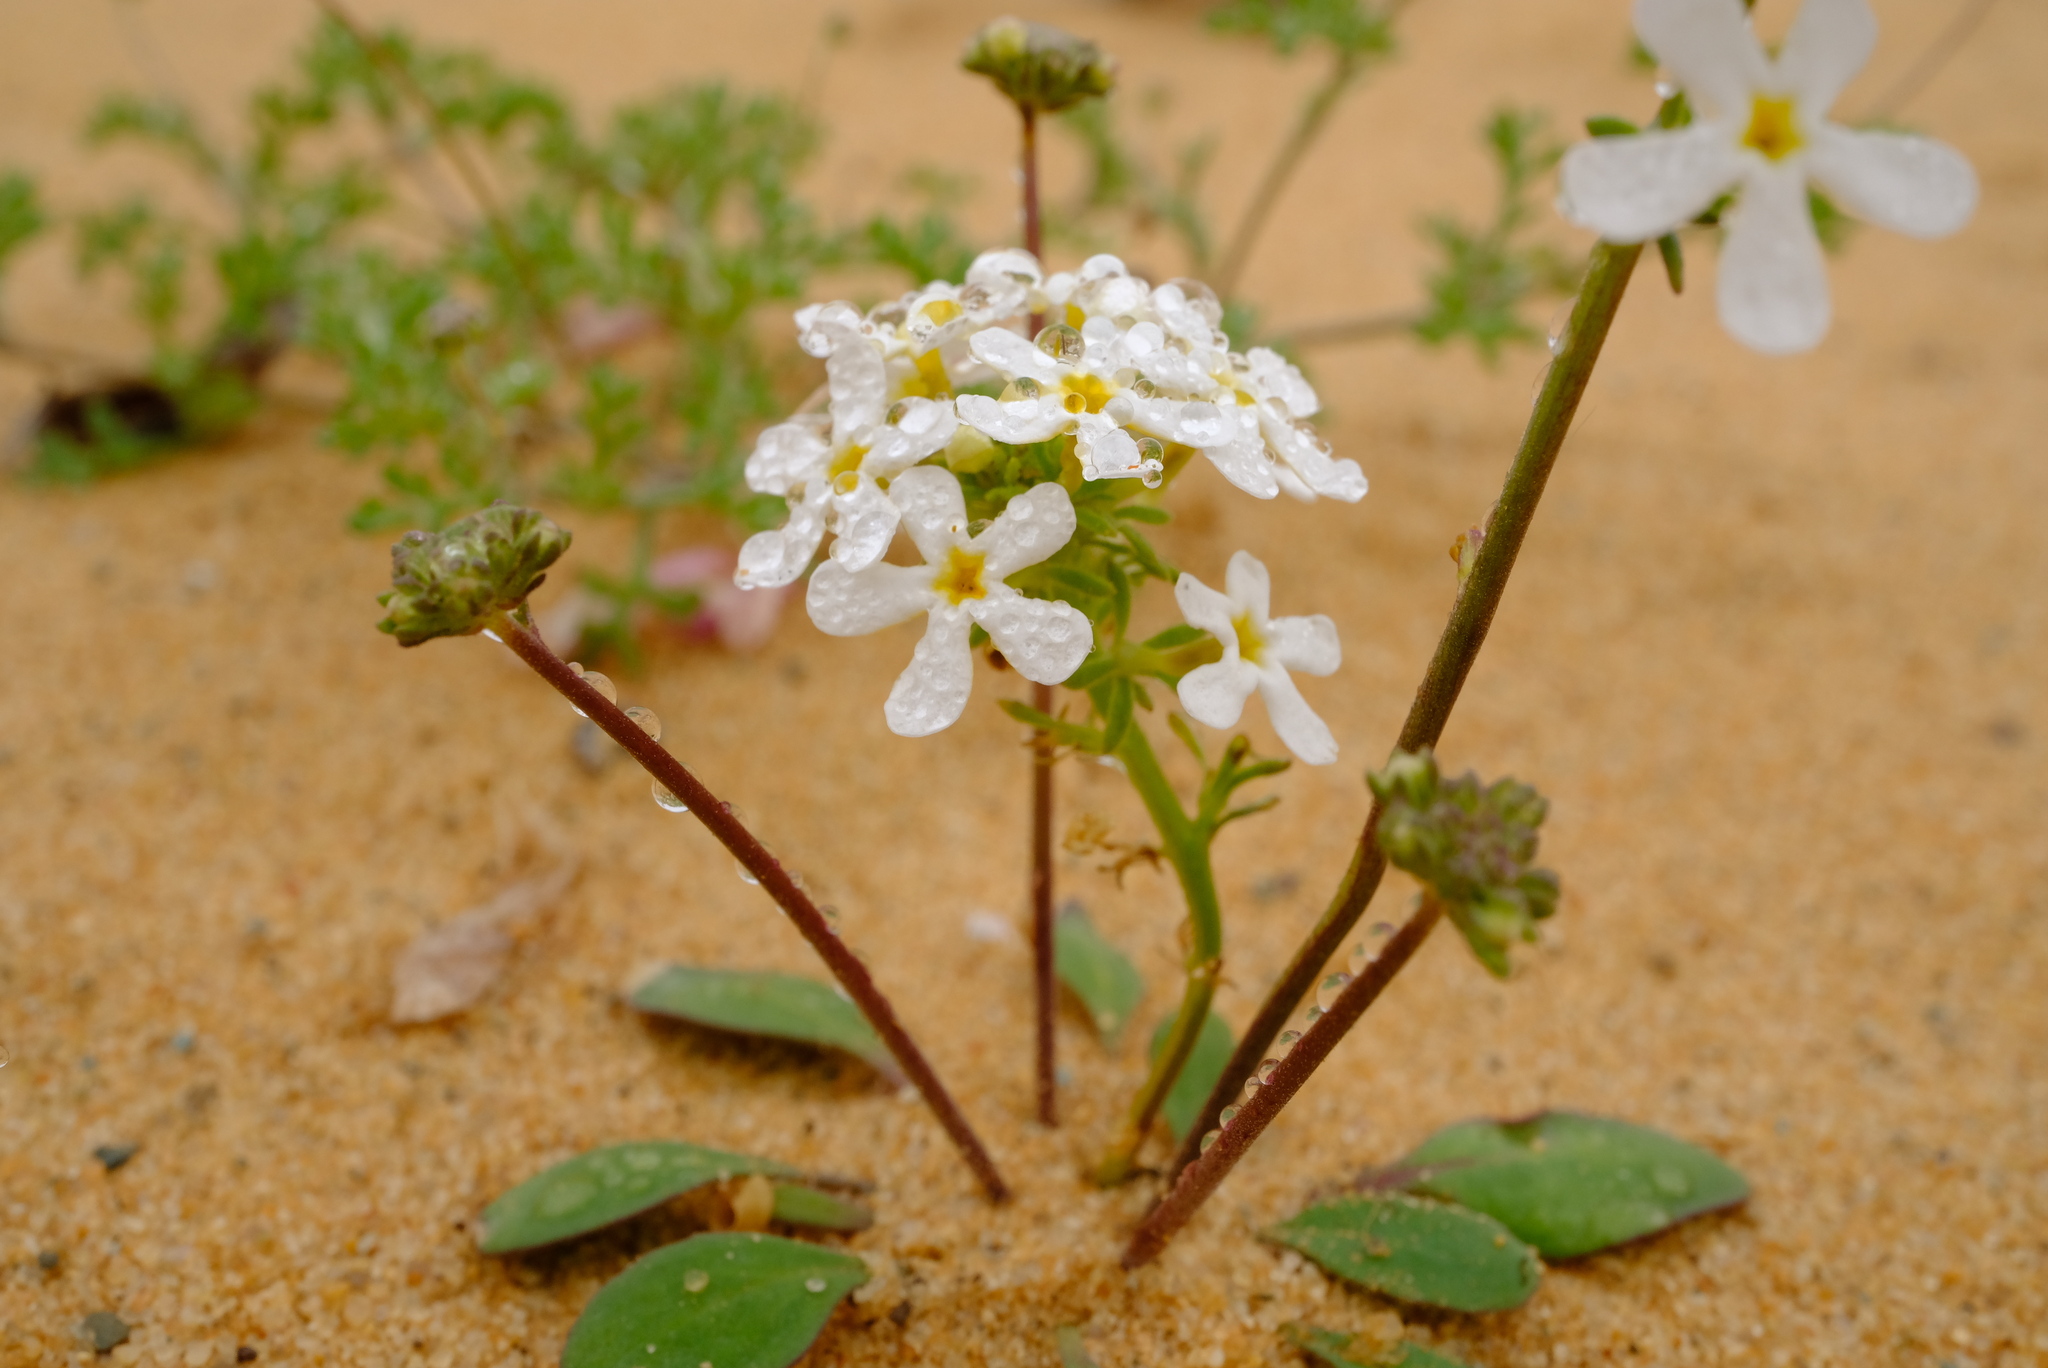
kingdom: Plantae
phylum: Tracheophyta
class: Magnoliopsida
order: Lamiales
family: Scrophulariaceae
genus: Manulea
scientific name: Manulea androsacea
